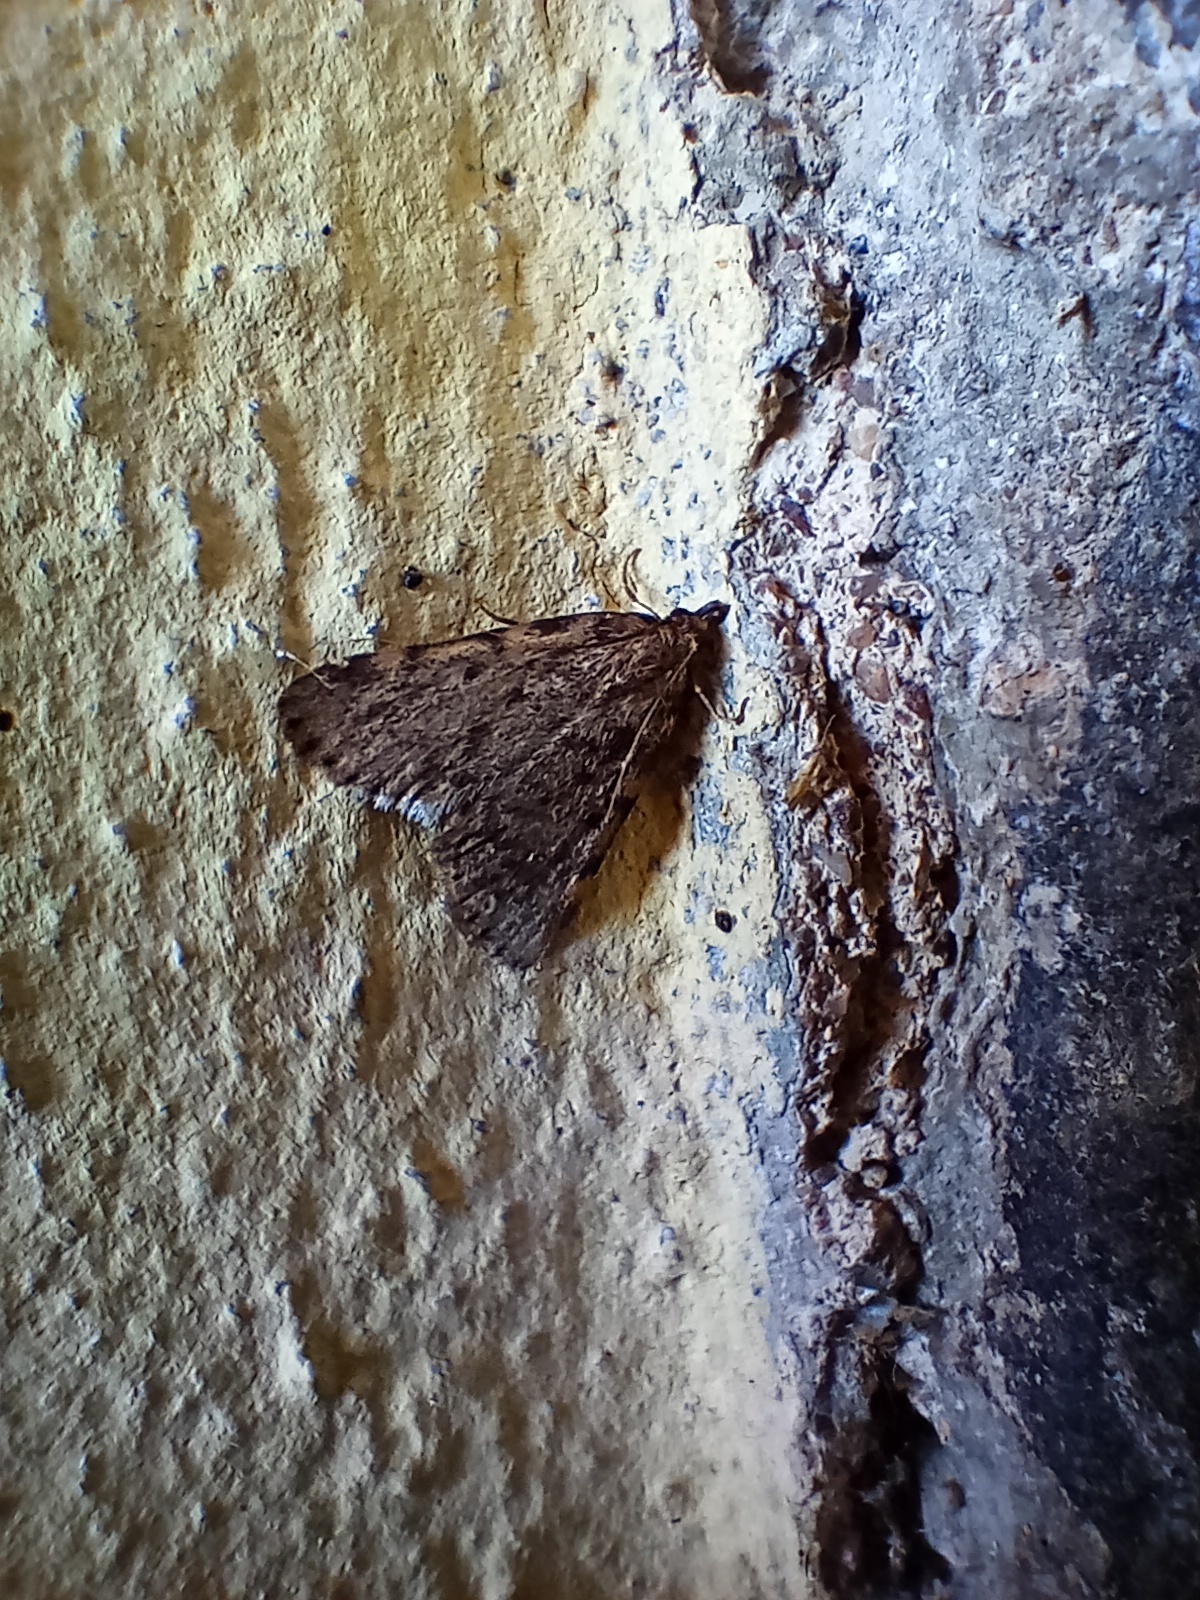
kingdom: Animalia
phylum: Arthropoda
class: Insecta
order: Lepidoptera
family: Pyralidae
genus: Aglossa
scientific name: Aglossa pinguinalis
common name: Large tabby
